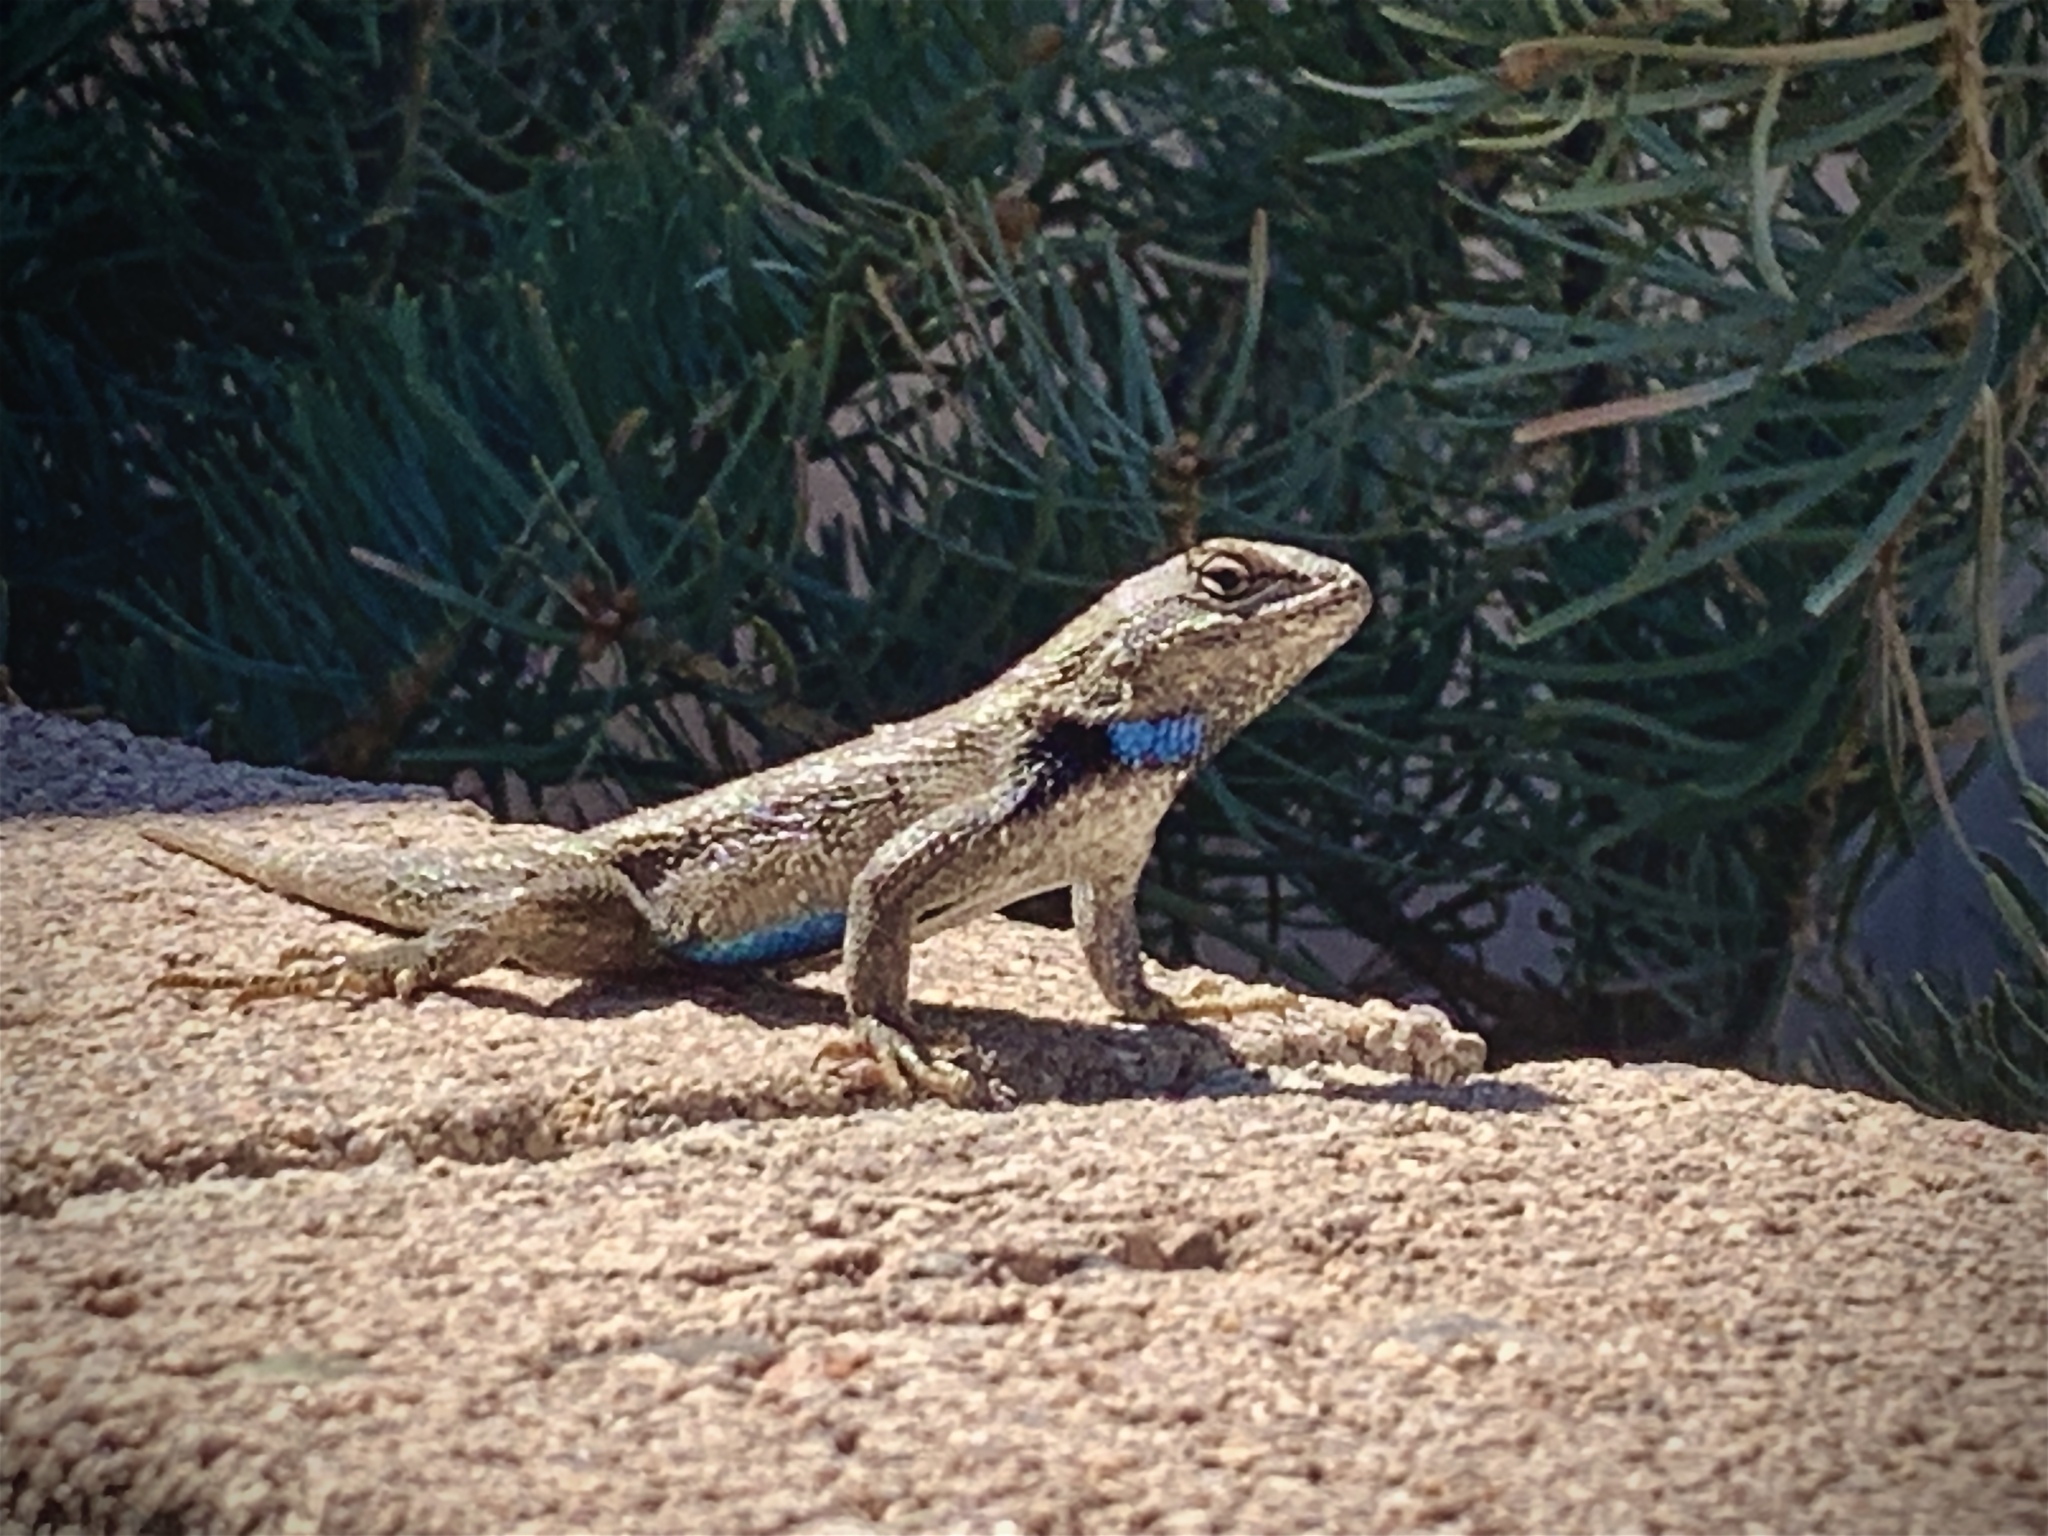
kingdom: Animalia
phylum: Chordata
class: Squamata
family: Phrynosomatidae
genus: Sceloporus
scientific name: Sceloporus cowlesi
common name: White sands prairie lizard
